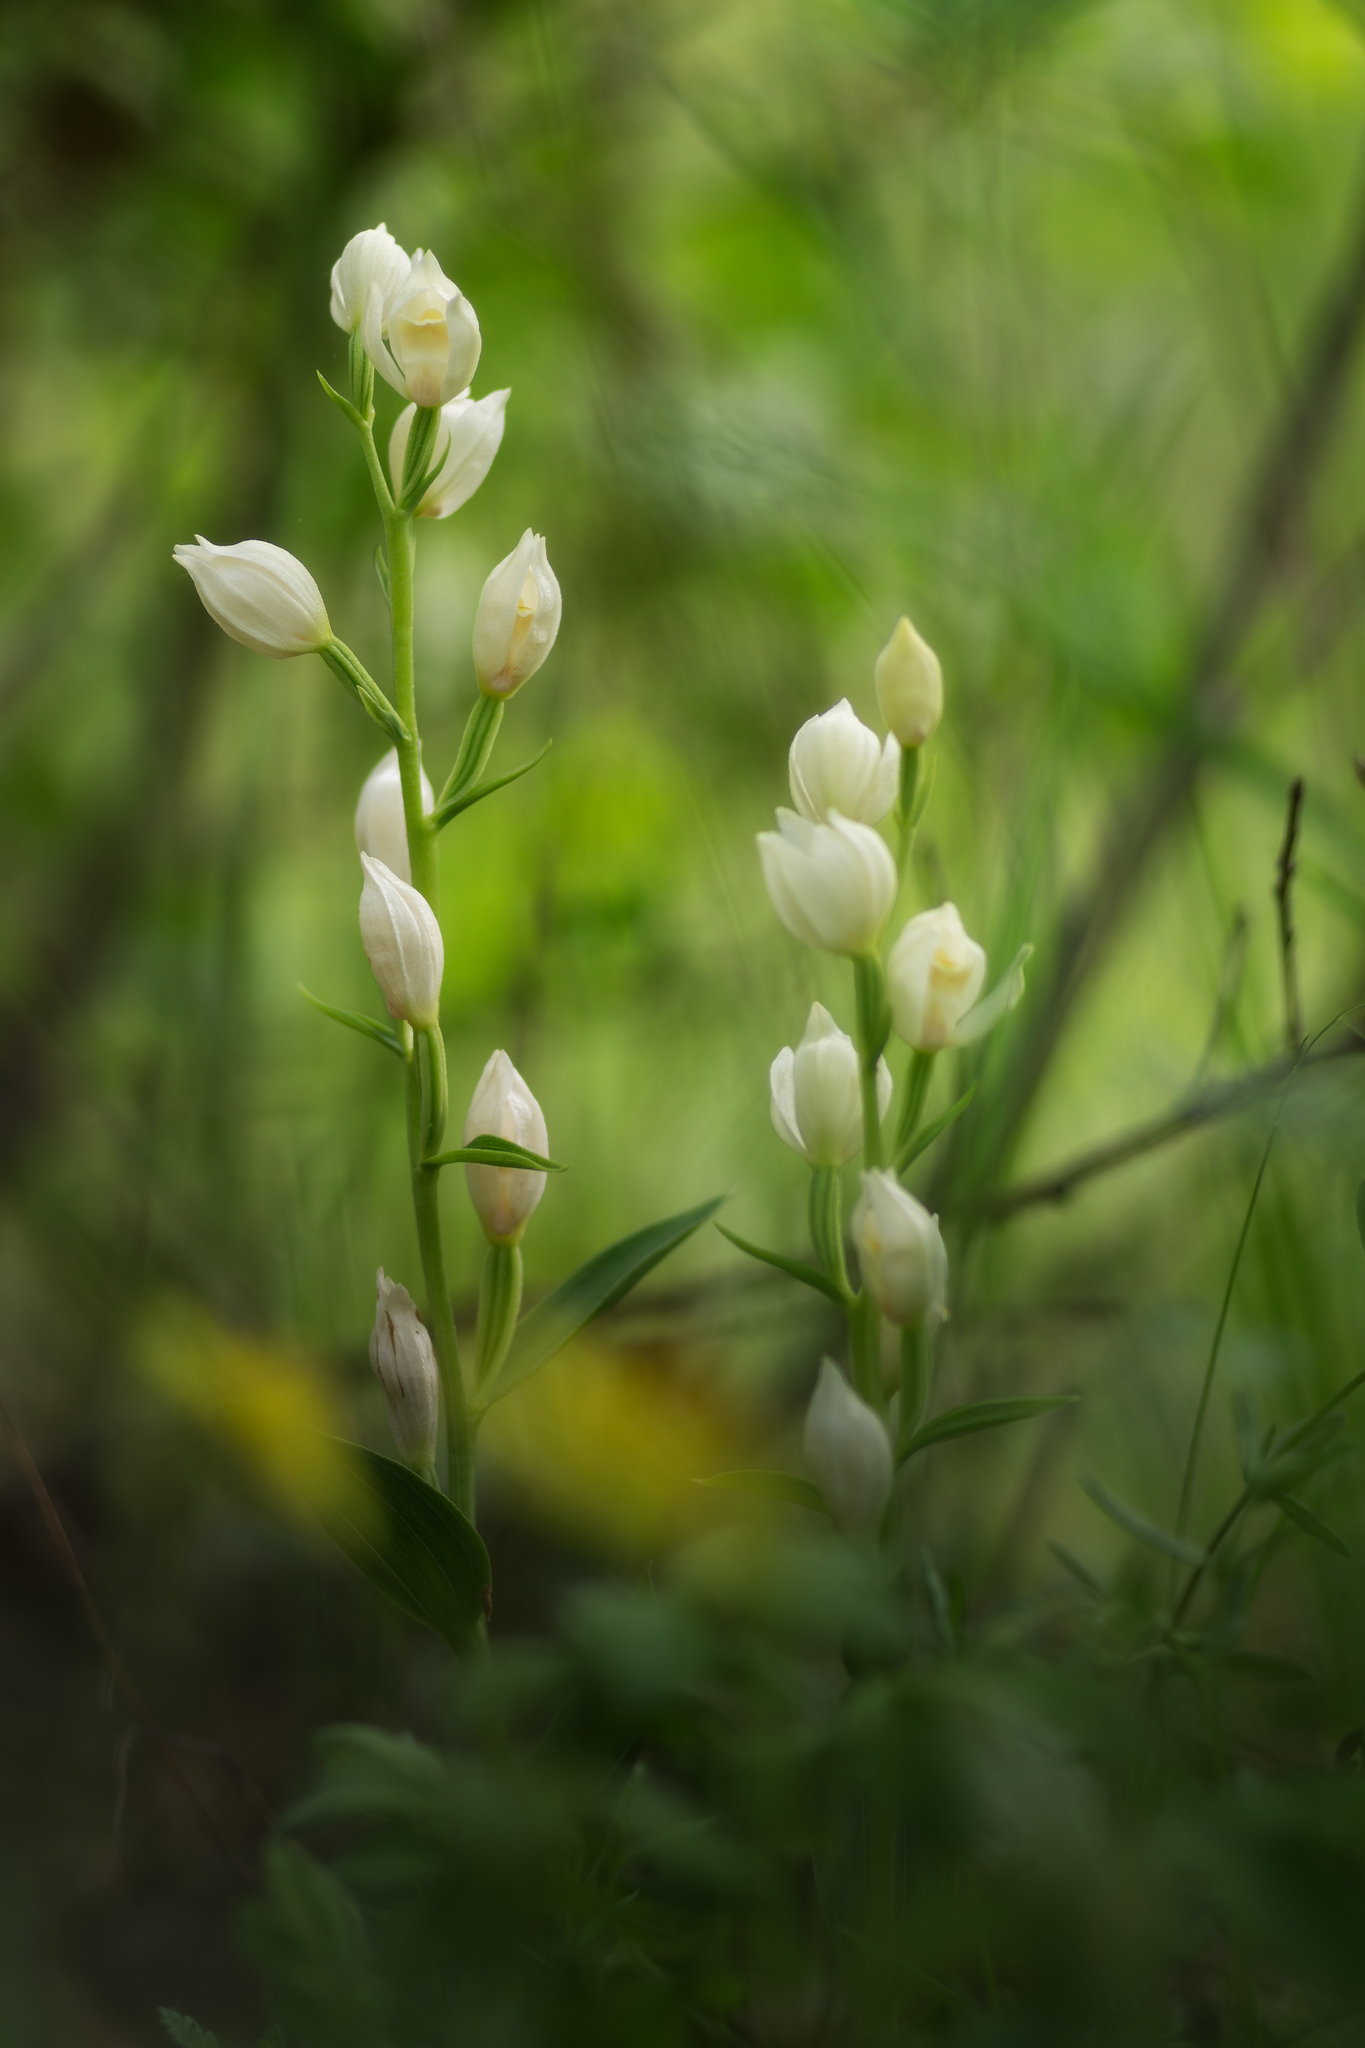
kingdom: Plantae
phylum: Tracheophyta
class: Liliopsida
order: Asparagales
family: Orchidaceae
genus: Cephalanthera
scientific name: Cephalanthera damasonium
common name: White helleborine
